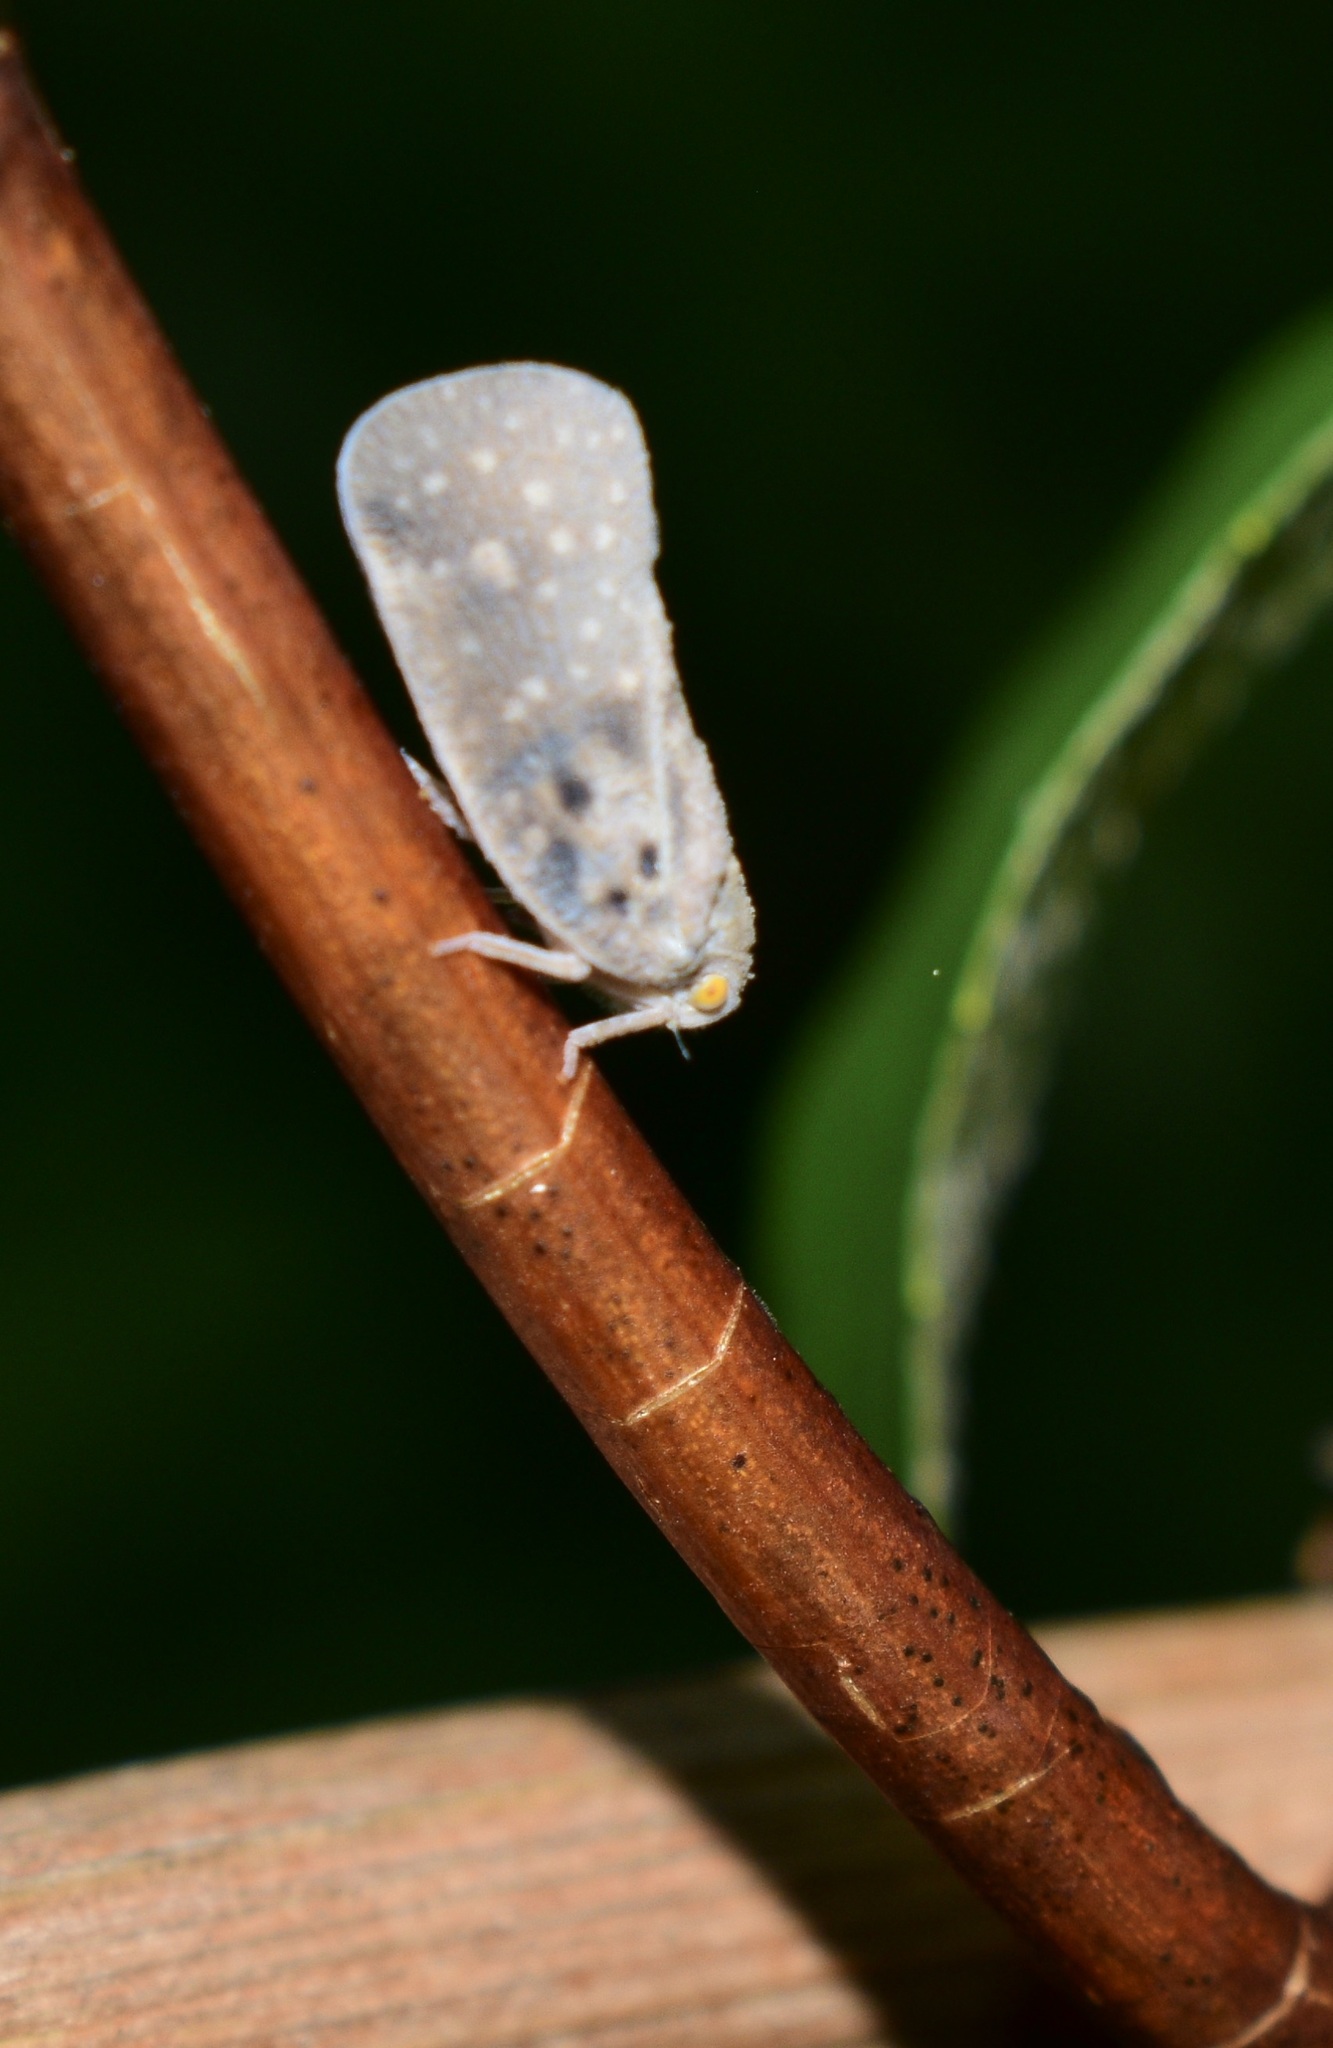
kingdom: Animalia
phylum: Arthropoda
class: Insecta
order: Hemiptera
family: Flatidae
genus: Metcalfa
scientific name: Metcalfa pruinosa
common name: Citrus flatid planthopper
